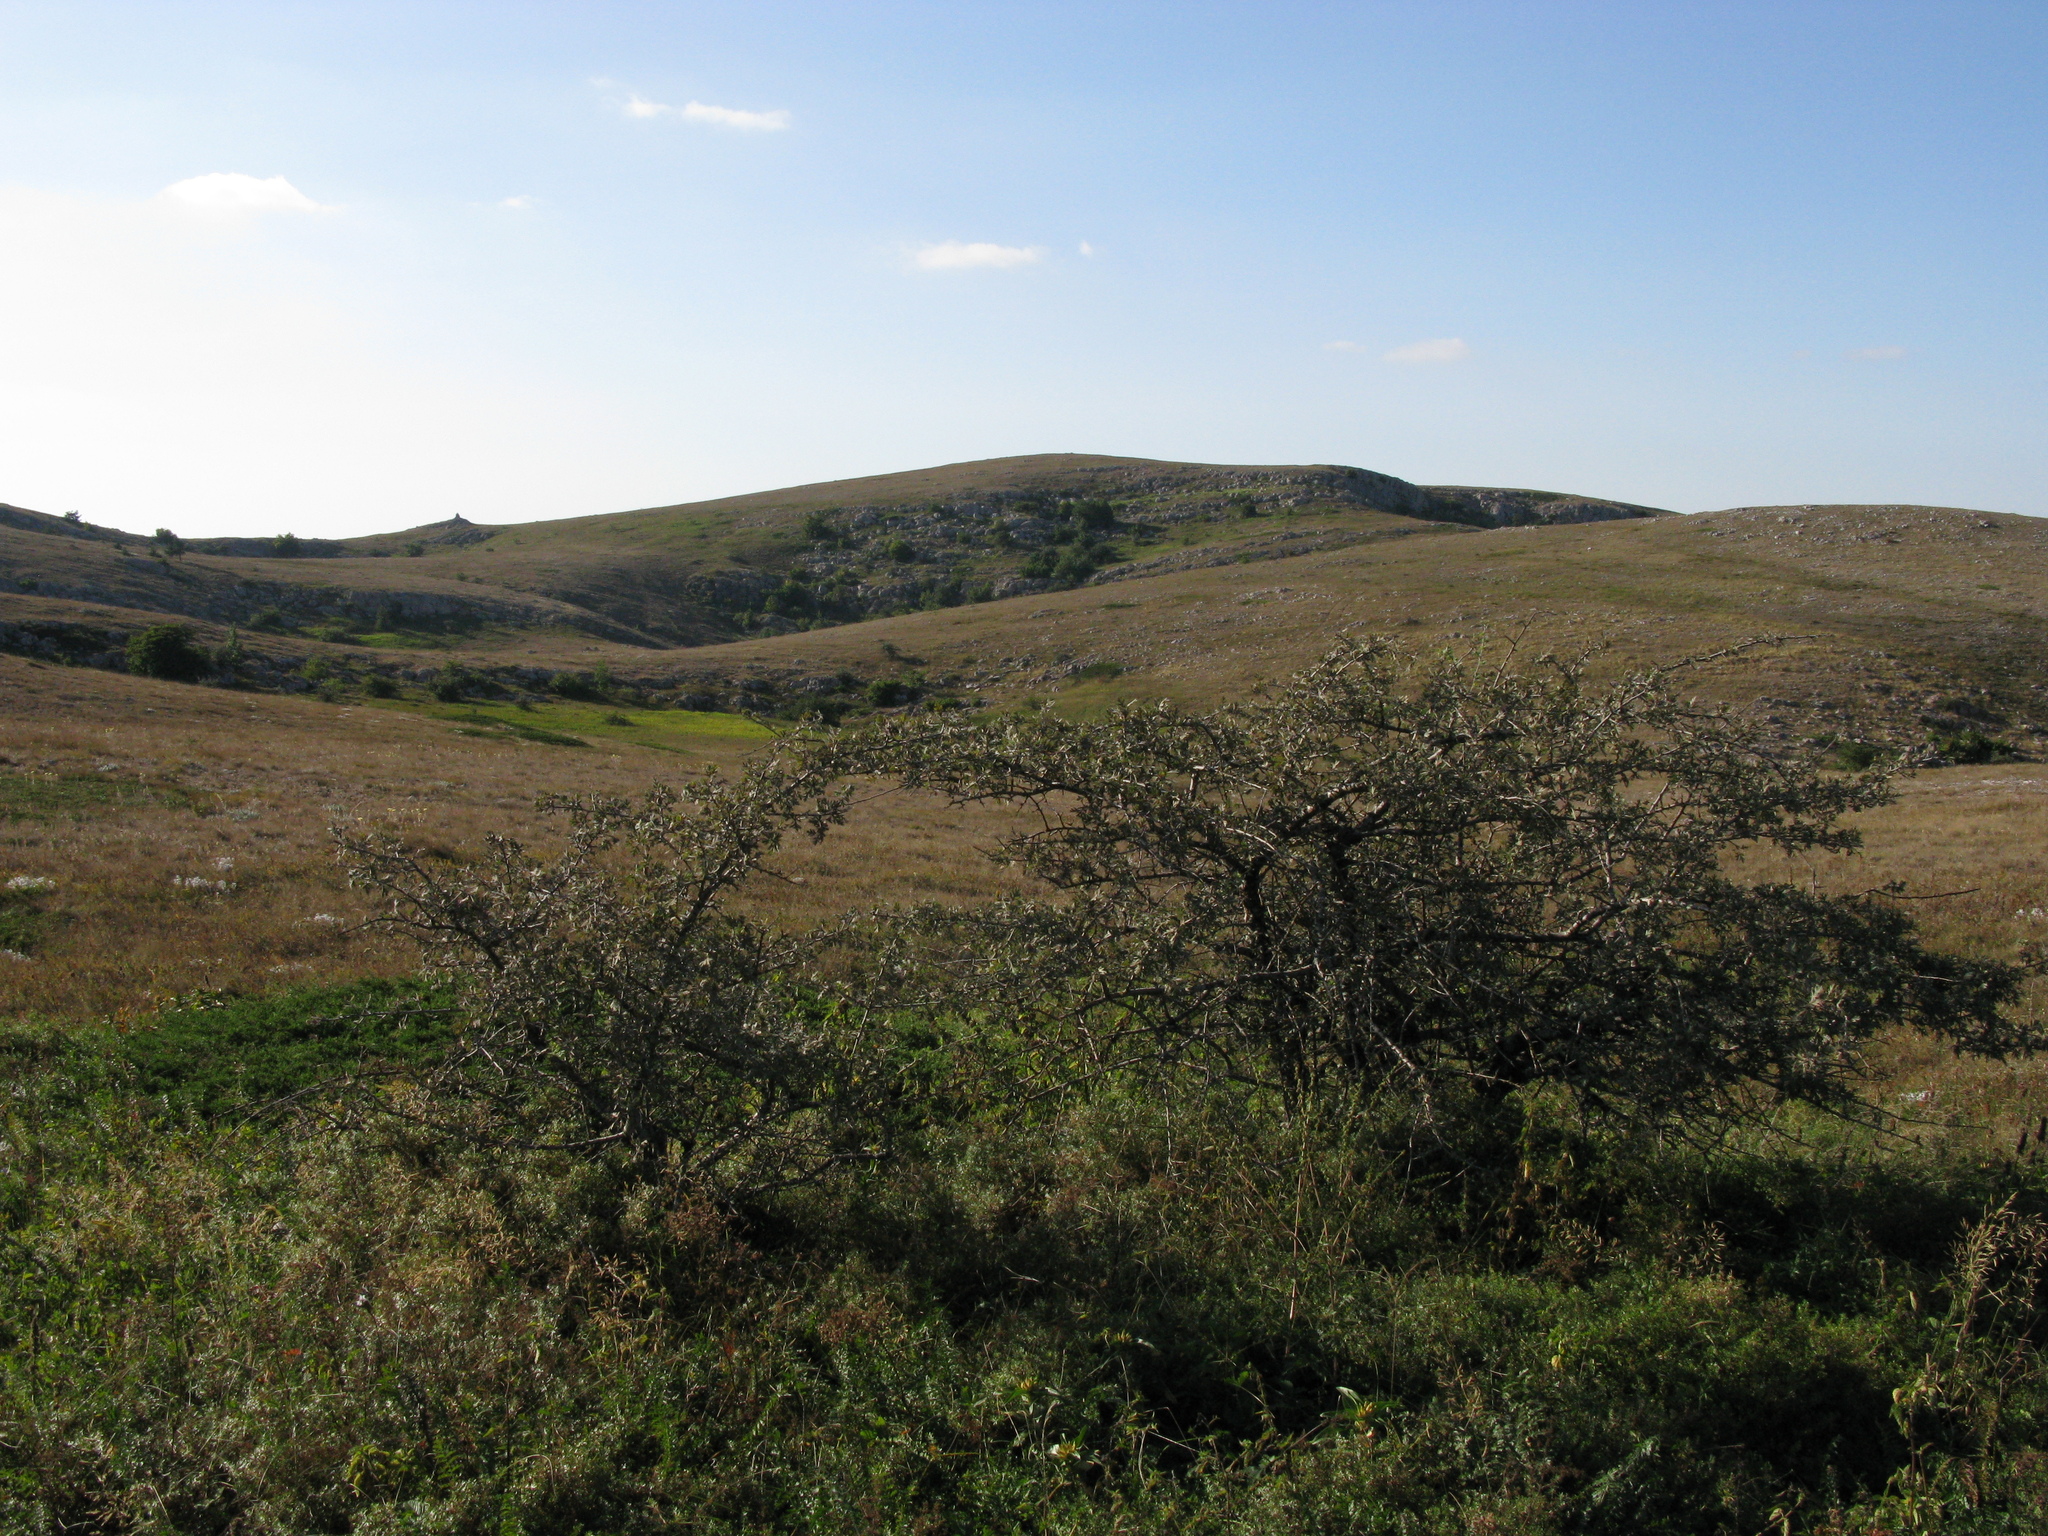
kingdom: Plantae
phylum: Tracheophyta
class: Magnoliopsida
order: Rosales
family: Rosaceae
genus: Pyrus
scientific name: Pyrus elaeagrifolia
